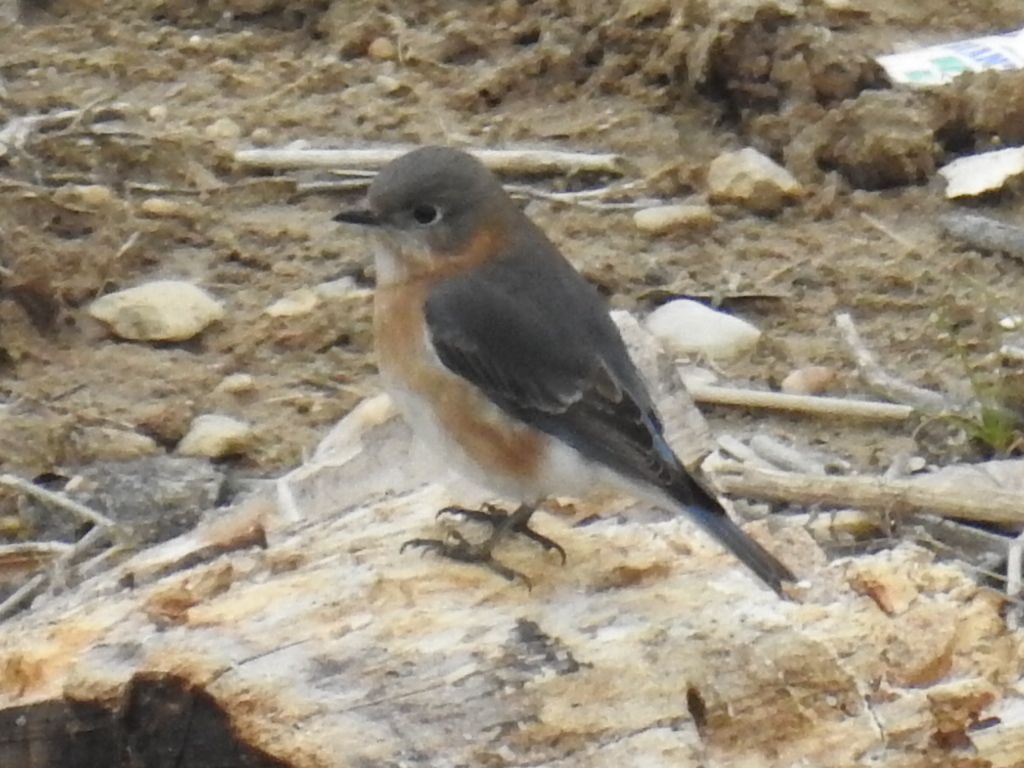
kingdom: Animalia
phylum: Chordata
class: Aves
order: Passeriformes
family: Turdidae
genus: Sialia
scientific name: Sialia sialis
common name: Eastern bluebird
